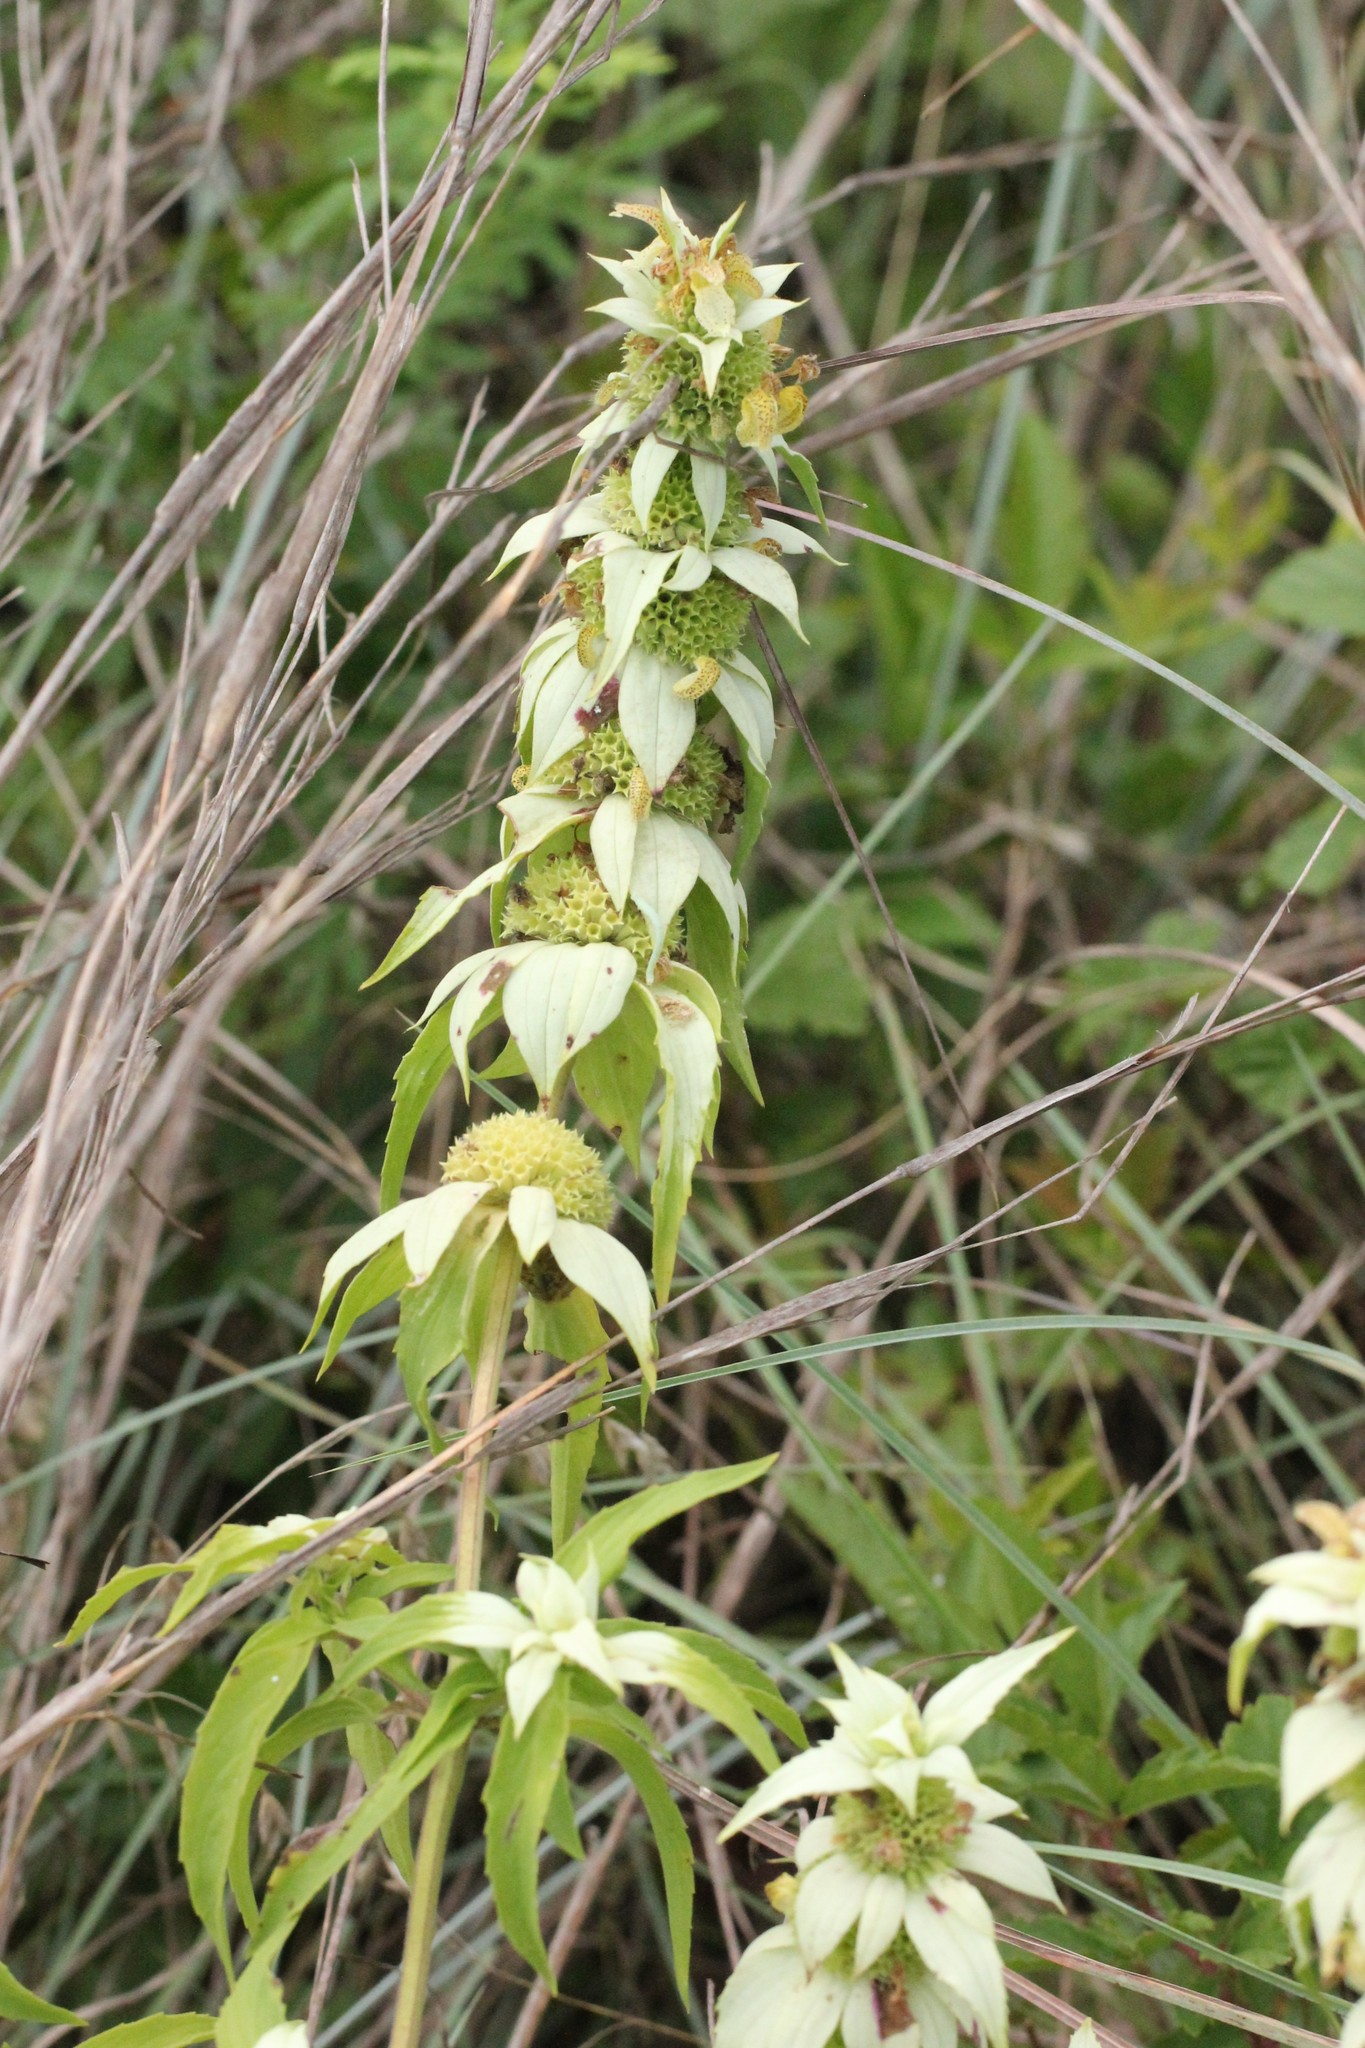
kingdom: Plantae
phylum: Tracheophyta
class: Magnoliopsida
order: Lamiales
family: Lamiaceae
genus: Monarda
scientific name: Monarda punctata
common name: Dotted monarda
